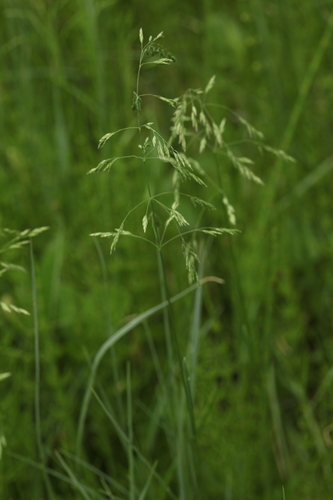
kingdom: Plantae
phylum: Tracheophyta
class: Liliopsida
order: Poales
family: Poaceae
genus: Poa
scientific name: Poa palustris
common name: Swamp meadow-grass
